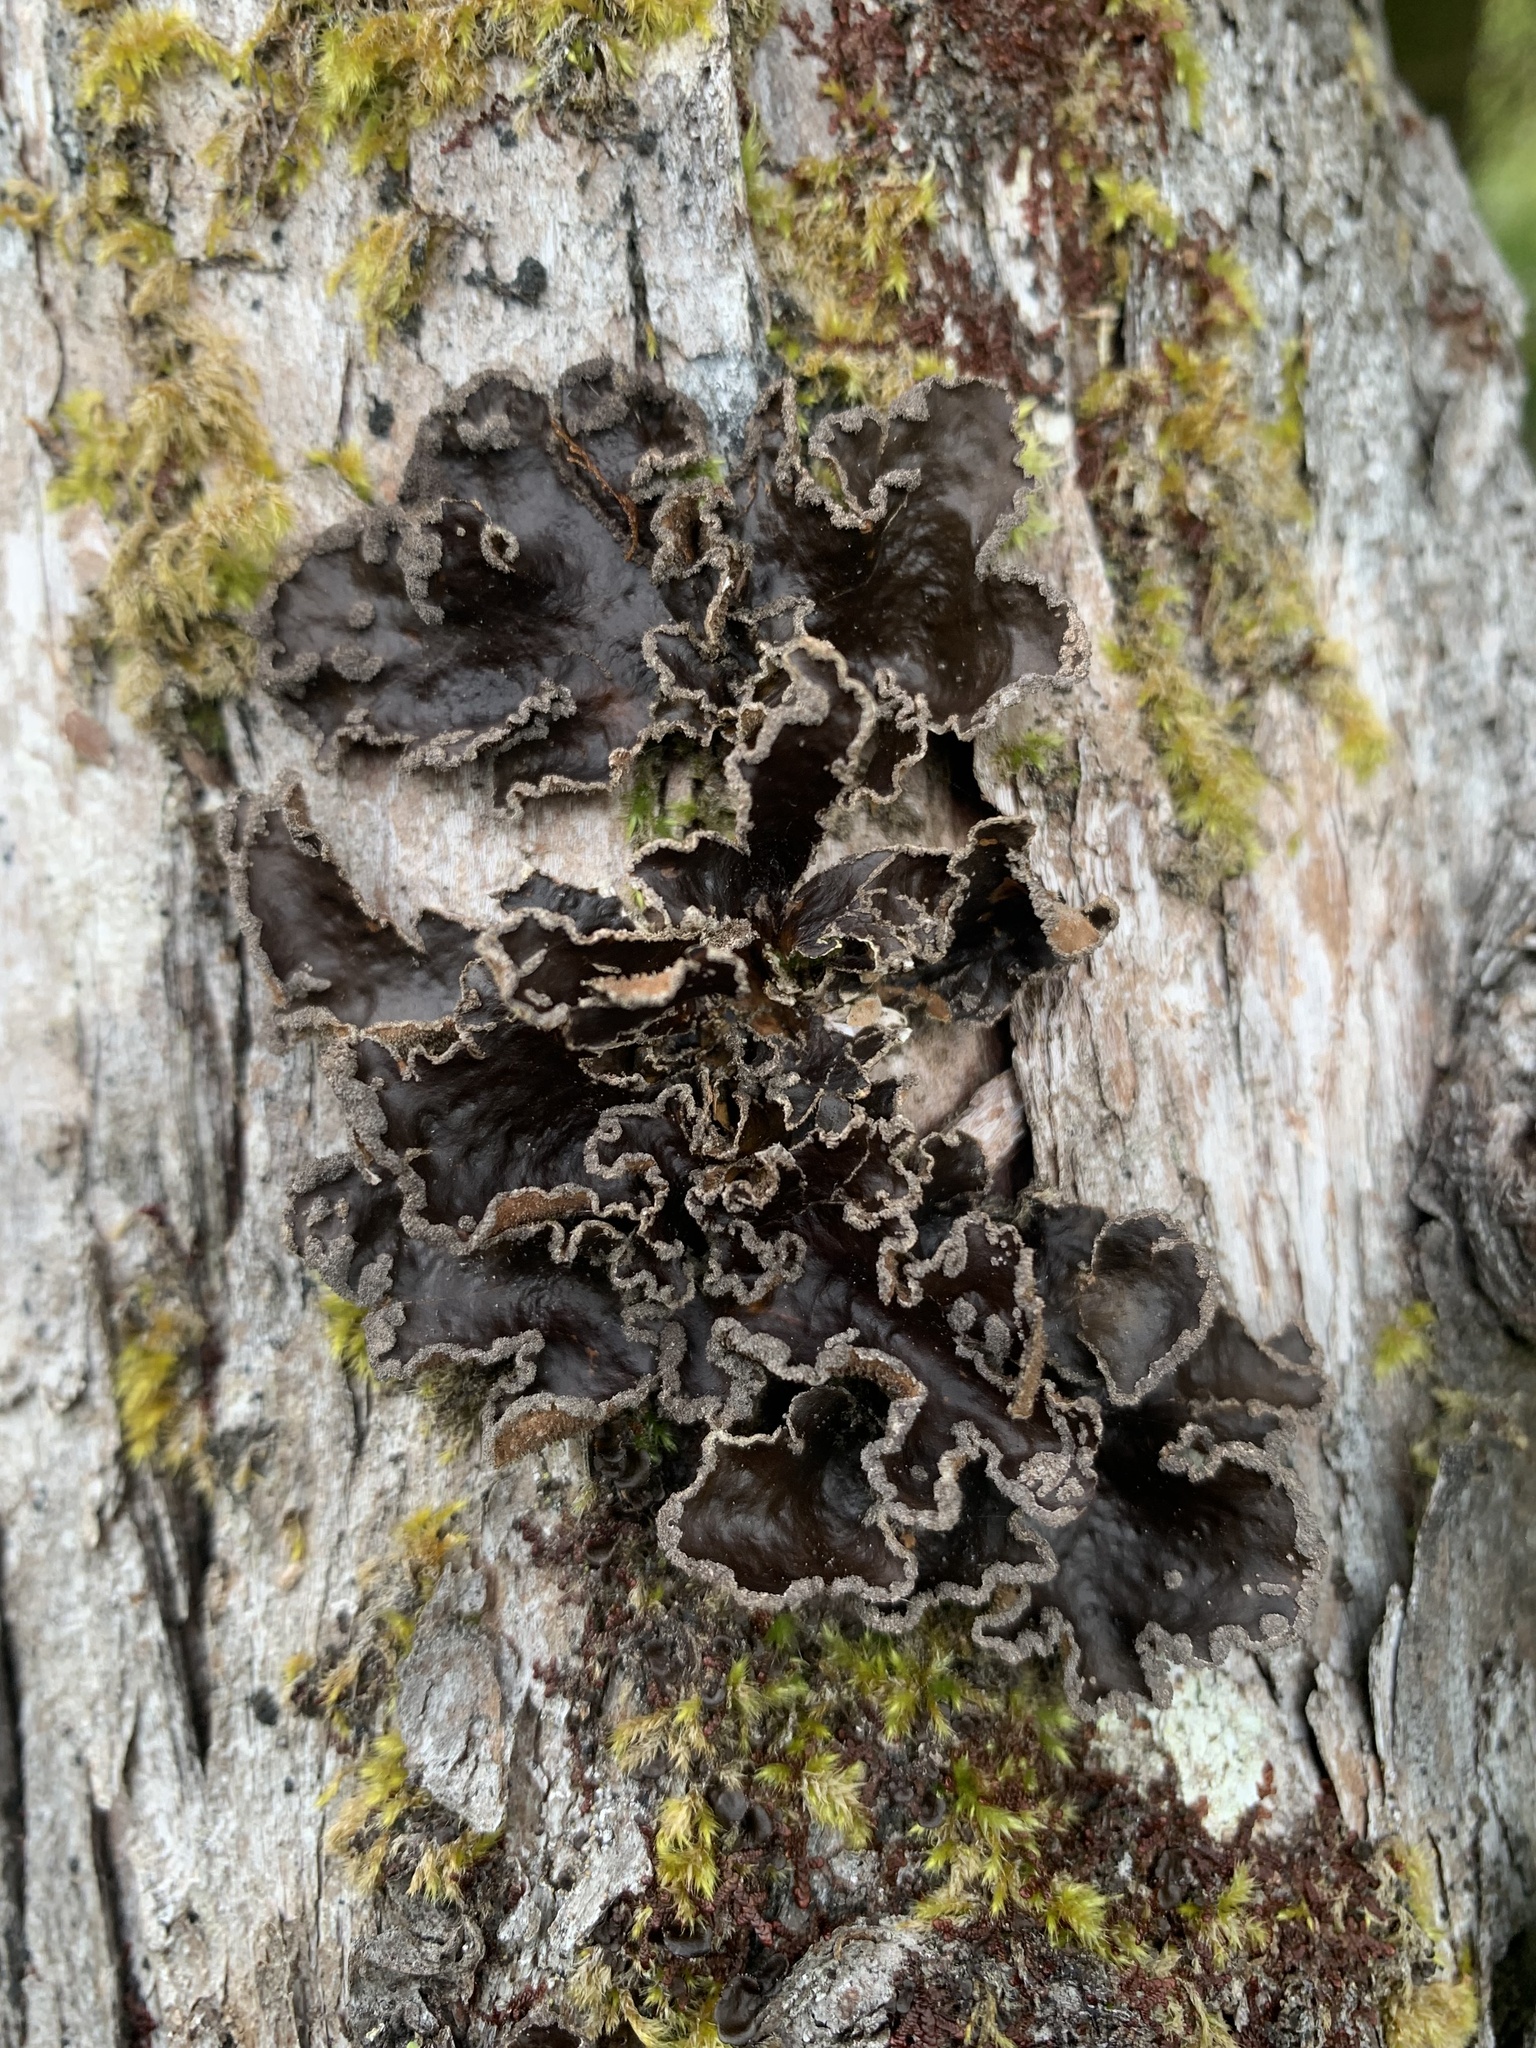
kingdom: Fungi
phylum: Ascomycota
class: Lecanoromycetes
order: Peltigerales
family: Lobariaceae
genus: Sticta
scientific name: Sticta limbata
